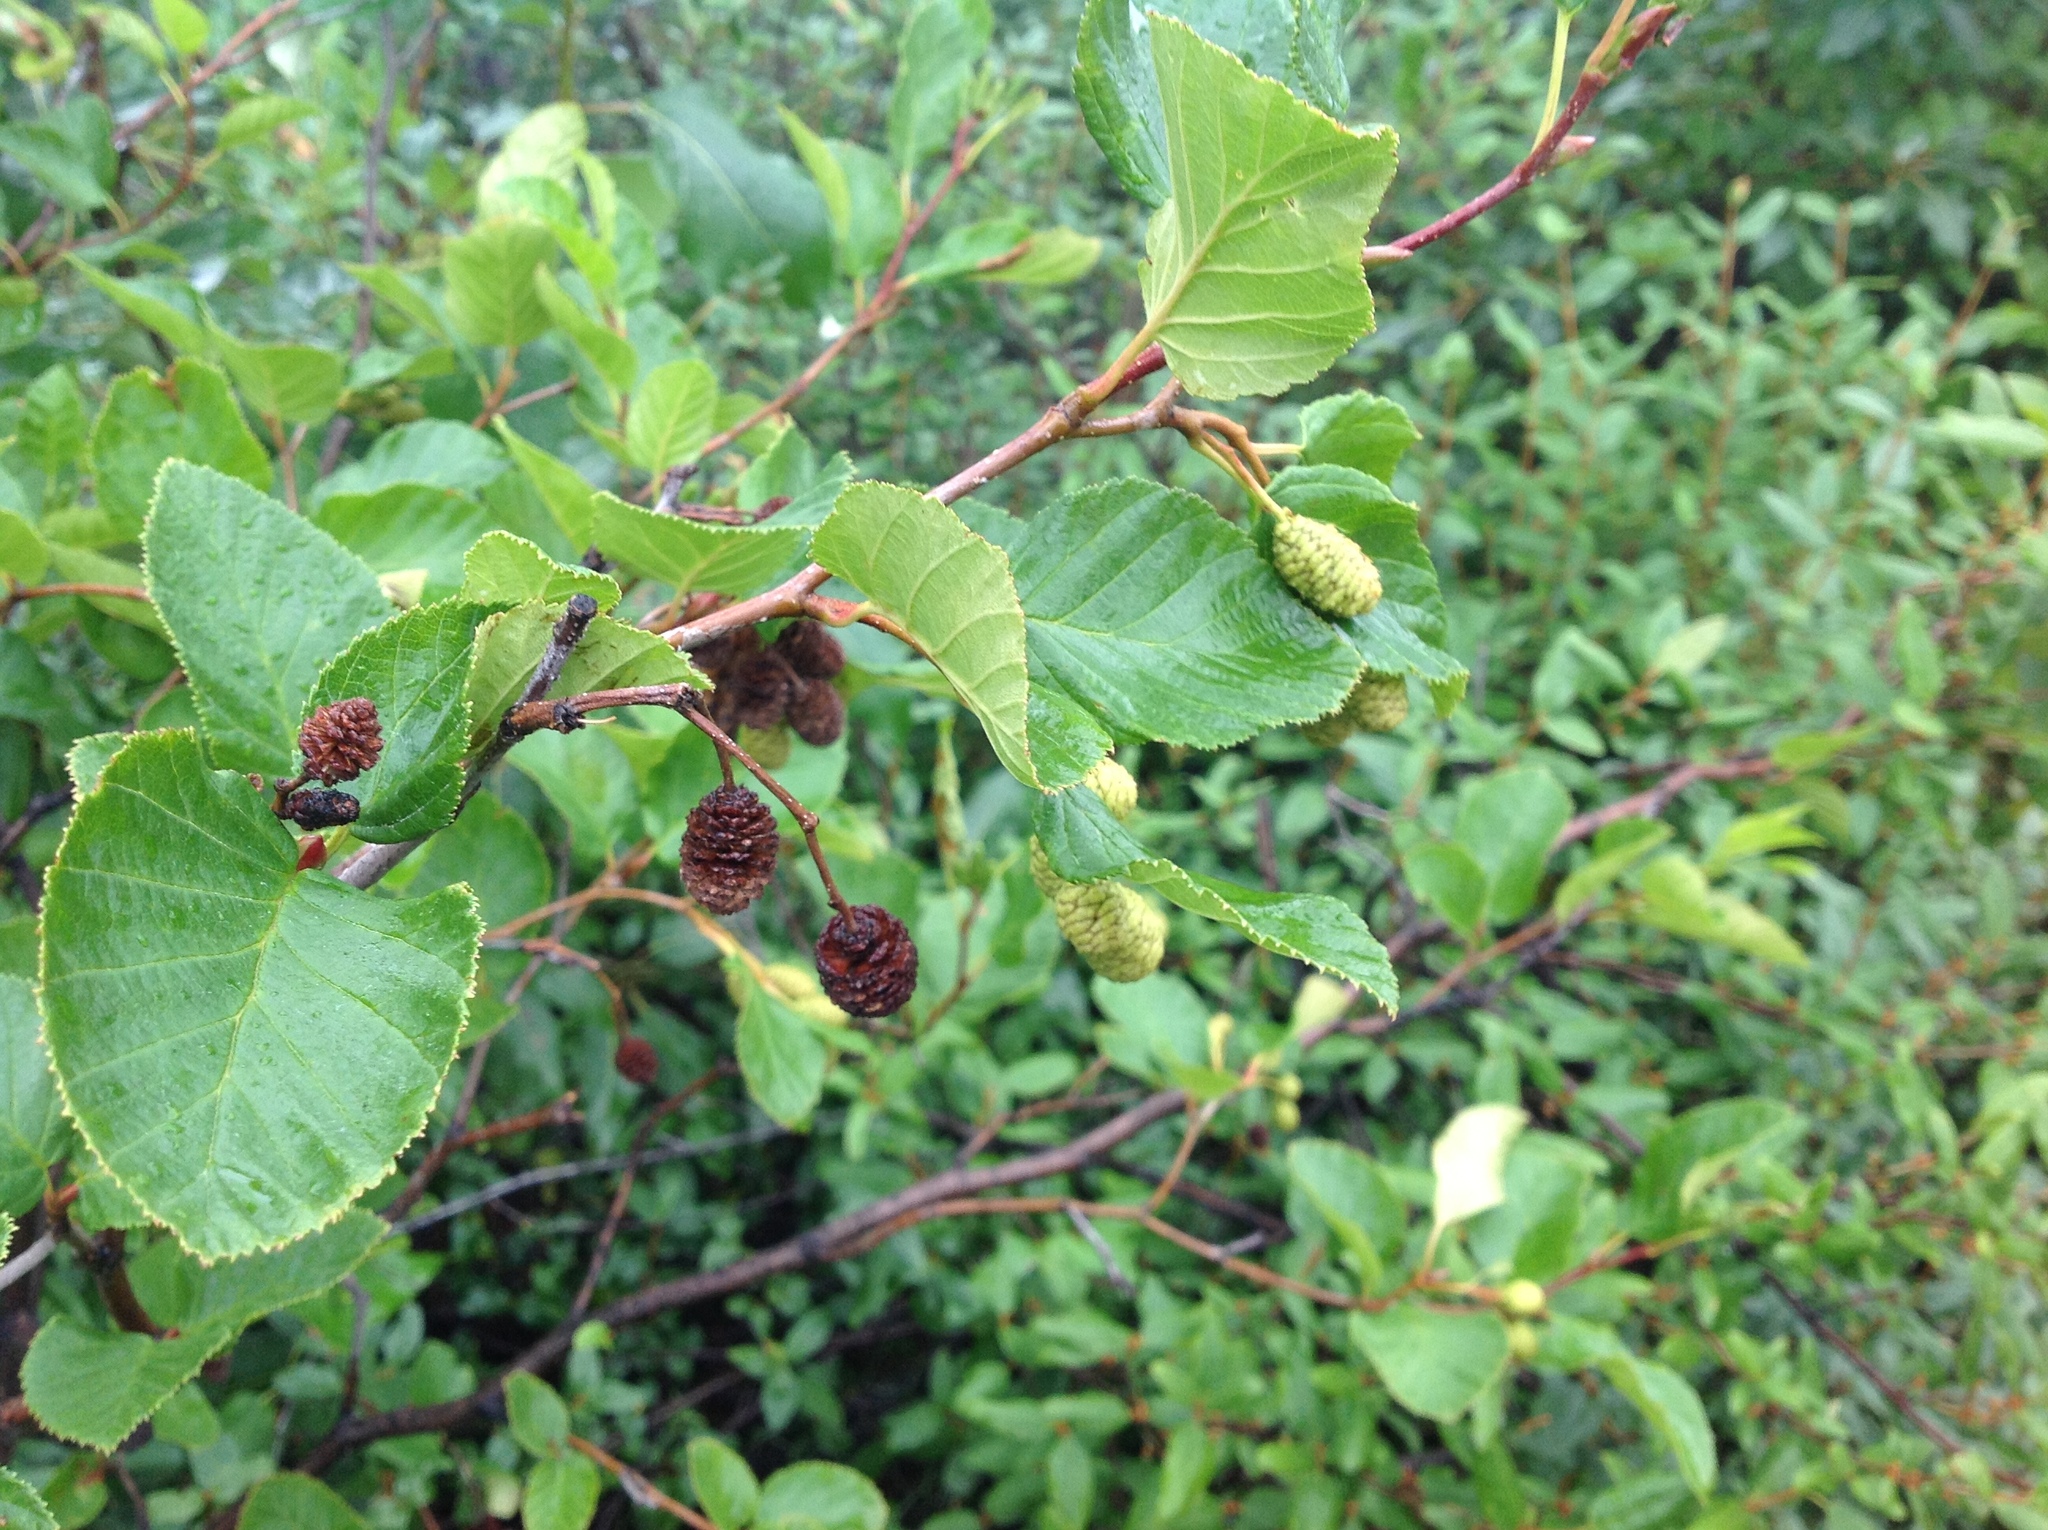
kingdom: Plantae
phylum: Tracheophyta
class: Magnoliopsida
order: Fagales
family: Betulaceae
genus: Alnus
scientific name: Alnus alnobetula
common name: Green alder
